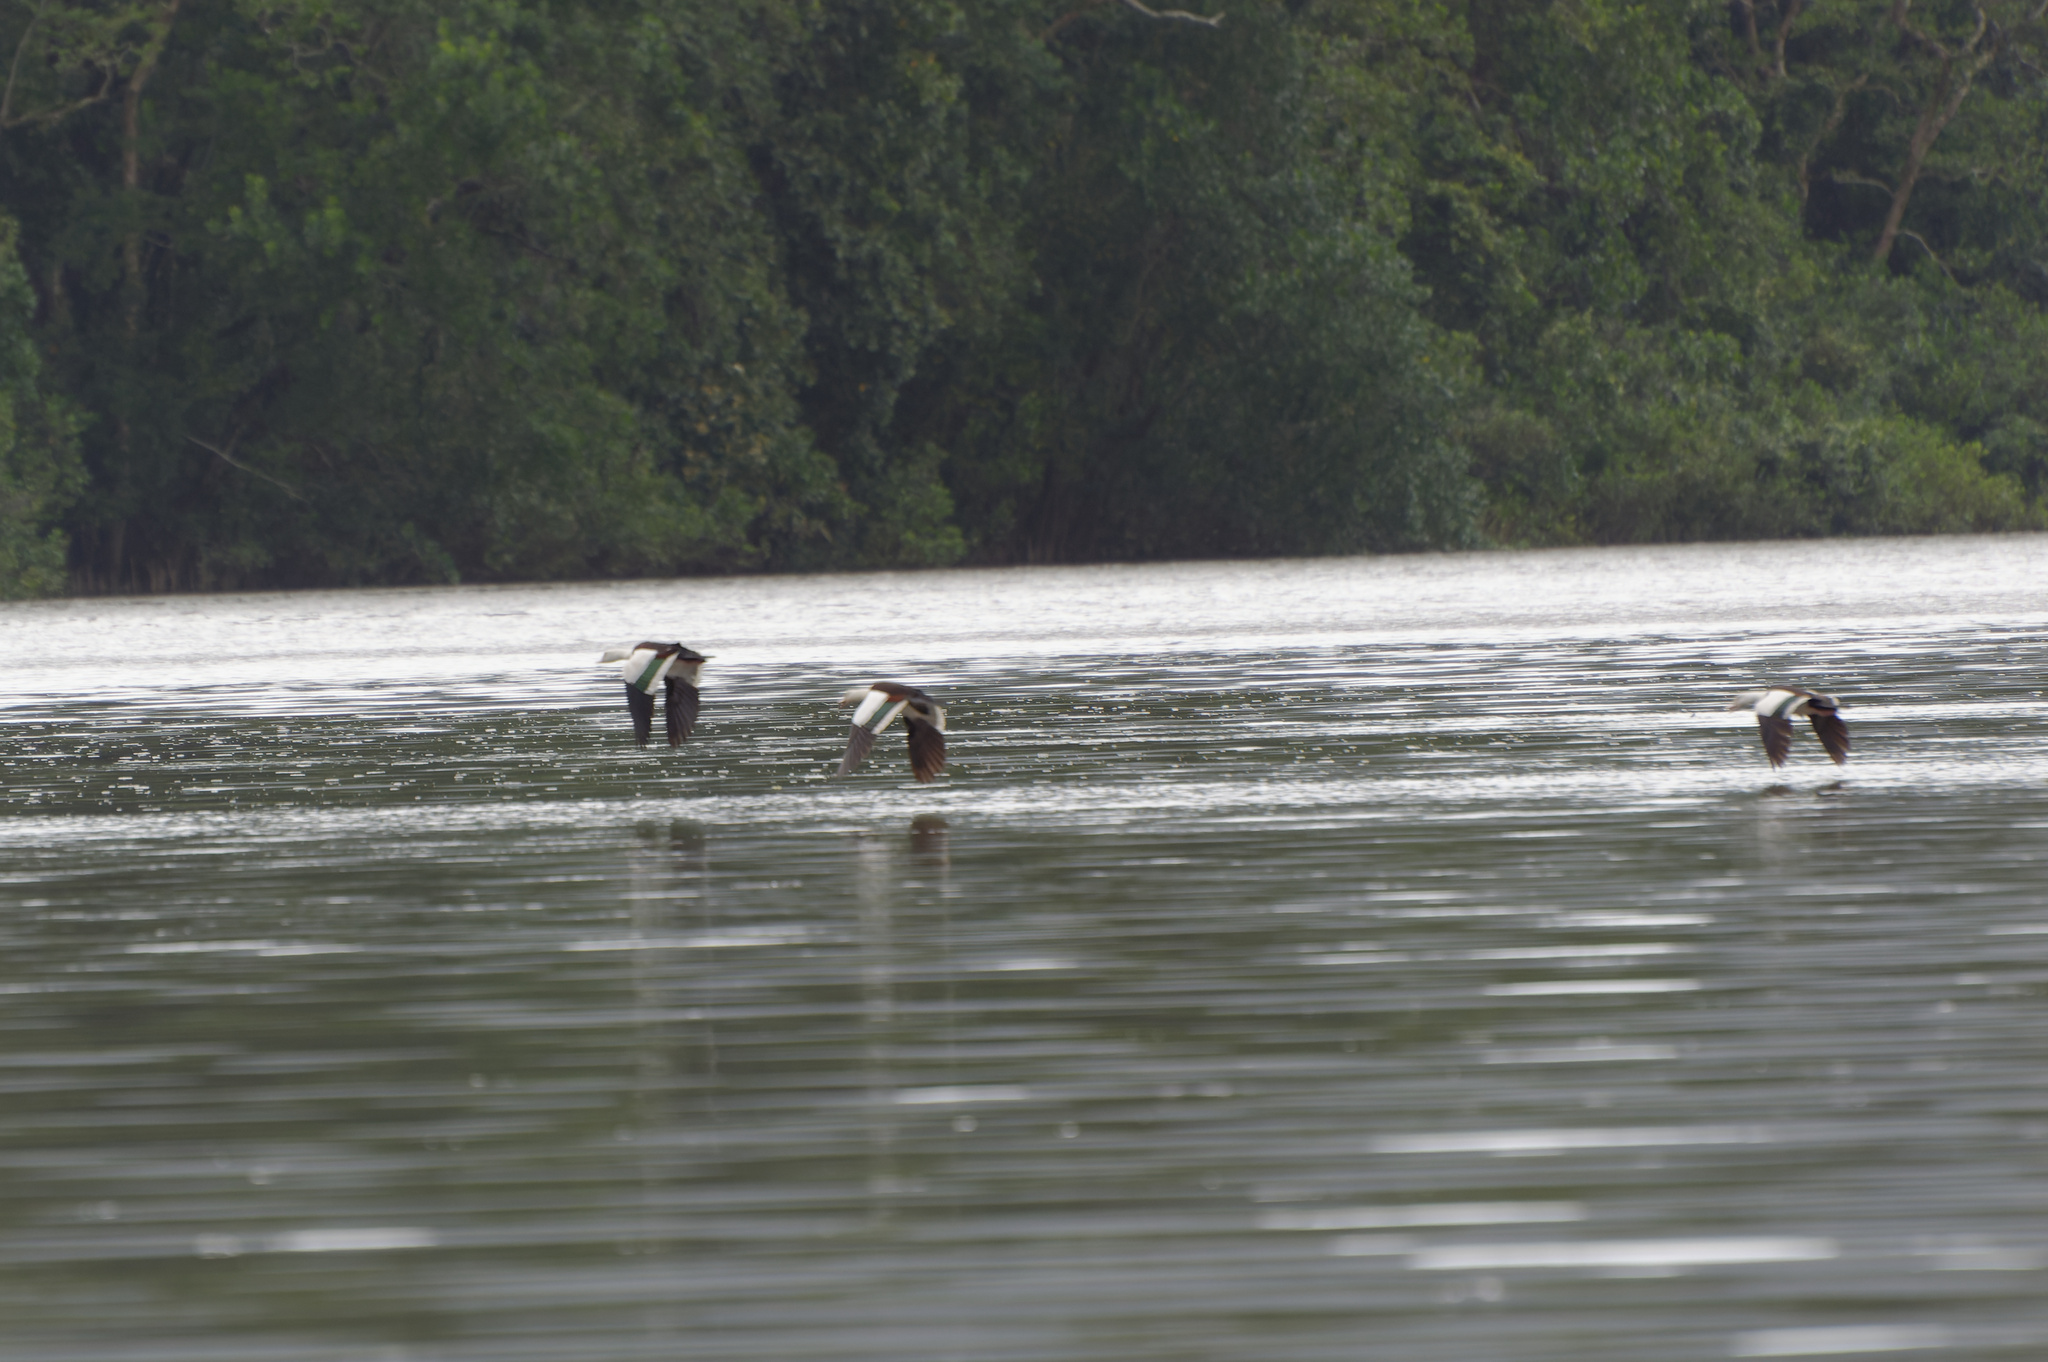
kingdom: Animalia
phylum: Chordata
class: Aves
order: Anseriformes
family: Anatidae
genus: Radjah
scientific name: Radjah radjah
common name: Radjah shelduck
